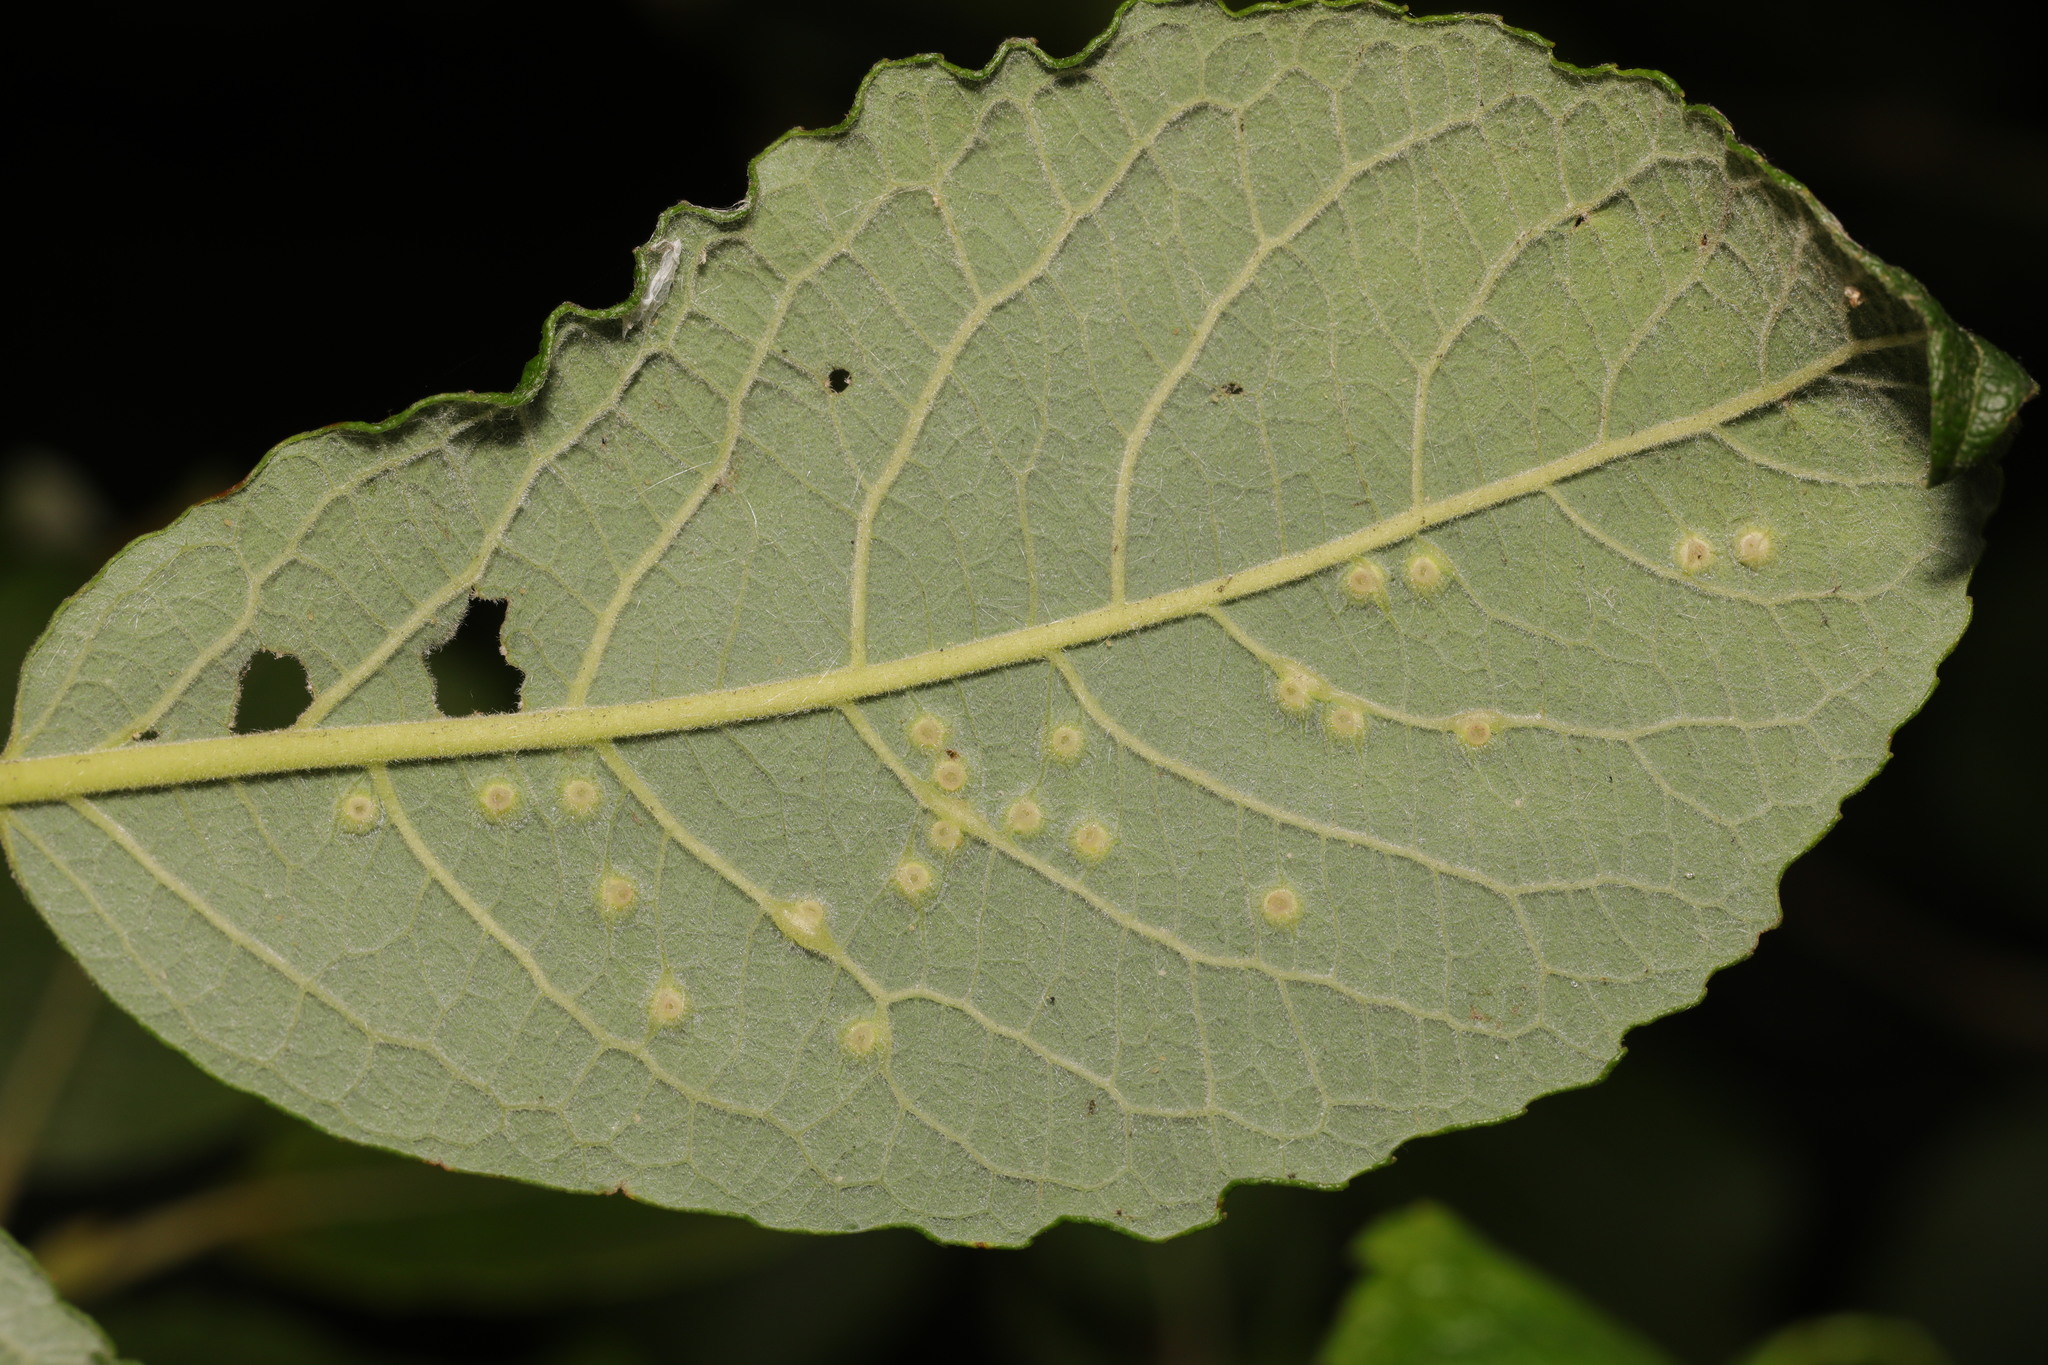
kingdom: Animalia
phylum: Arthropoda
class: Insecta
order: Diptera
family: Cecidomyiidae
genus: Iteomyia
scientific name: Iteomyia capreae
